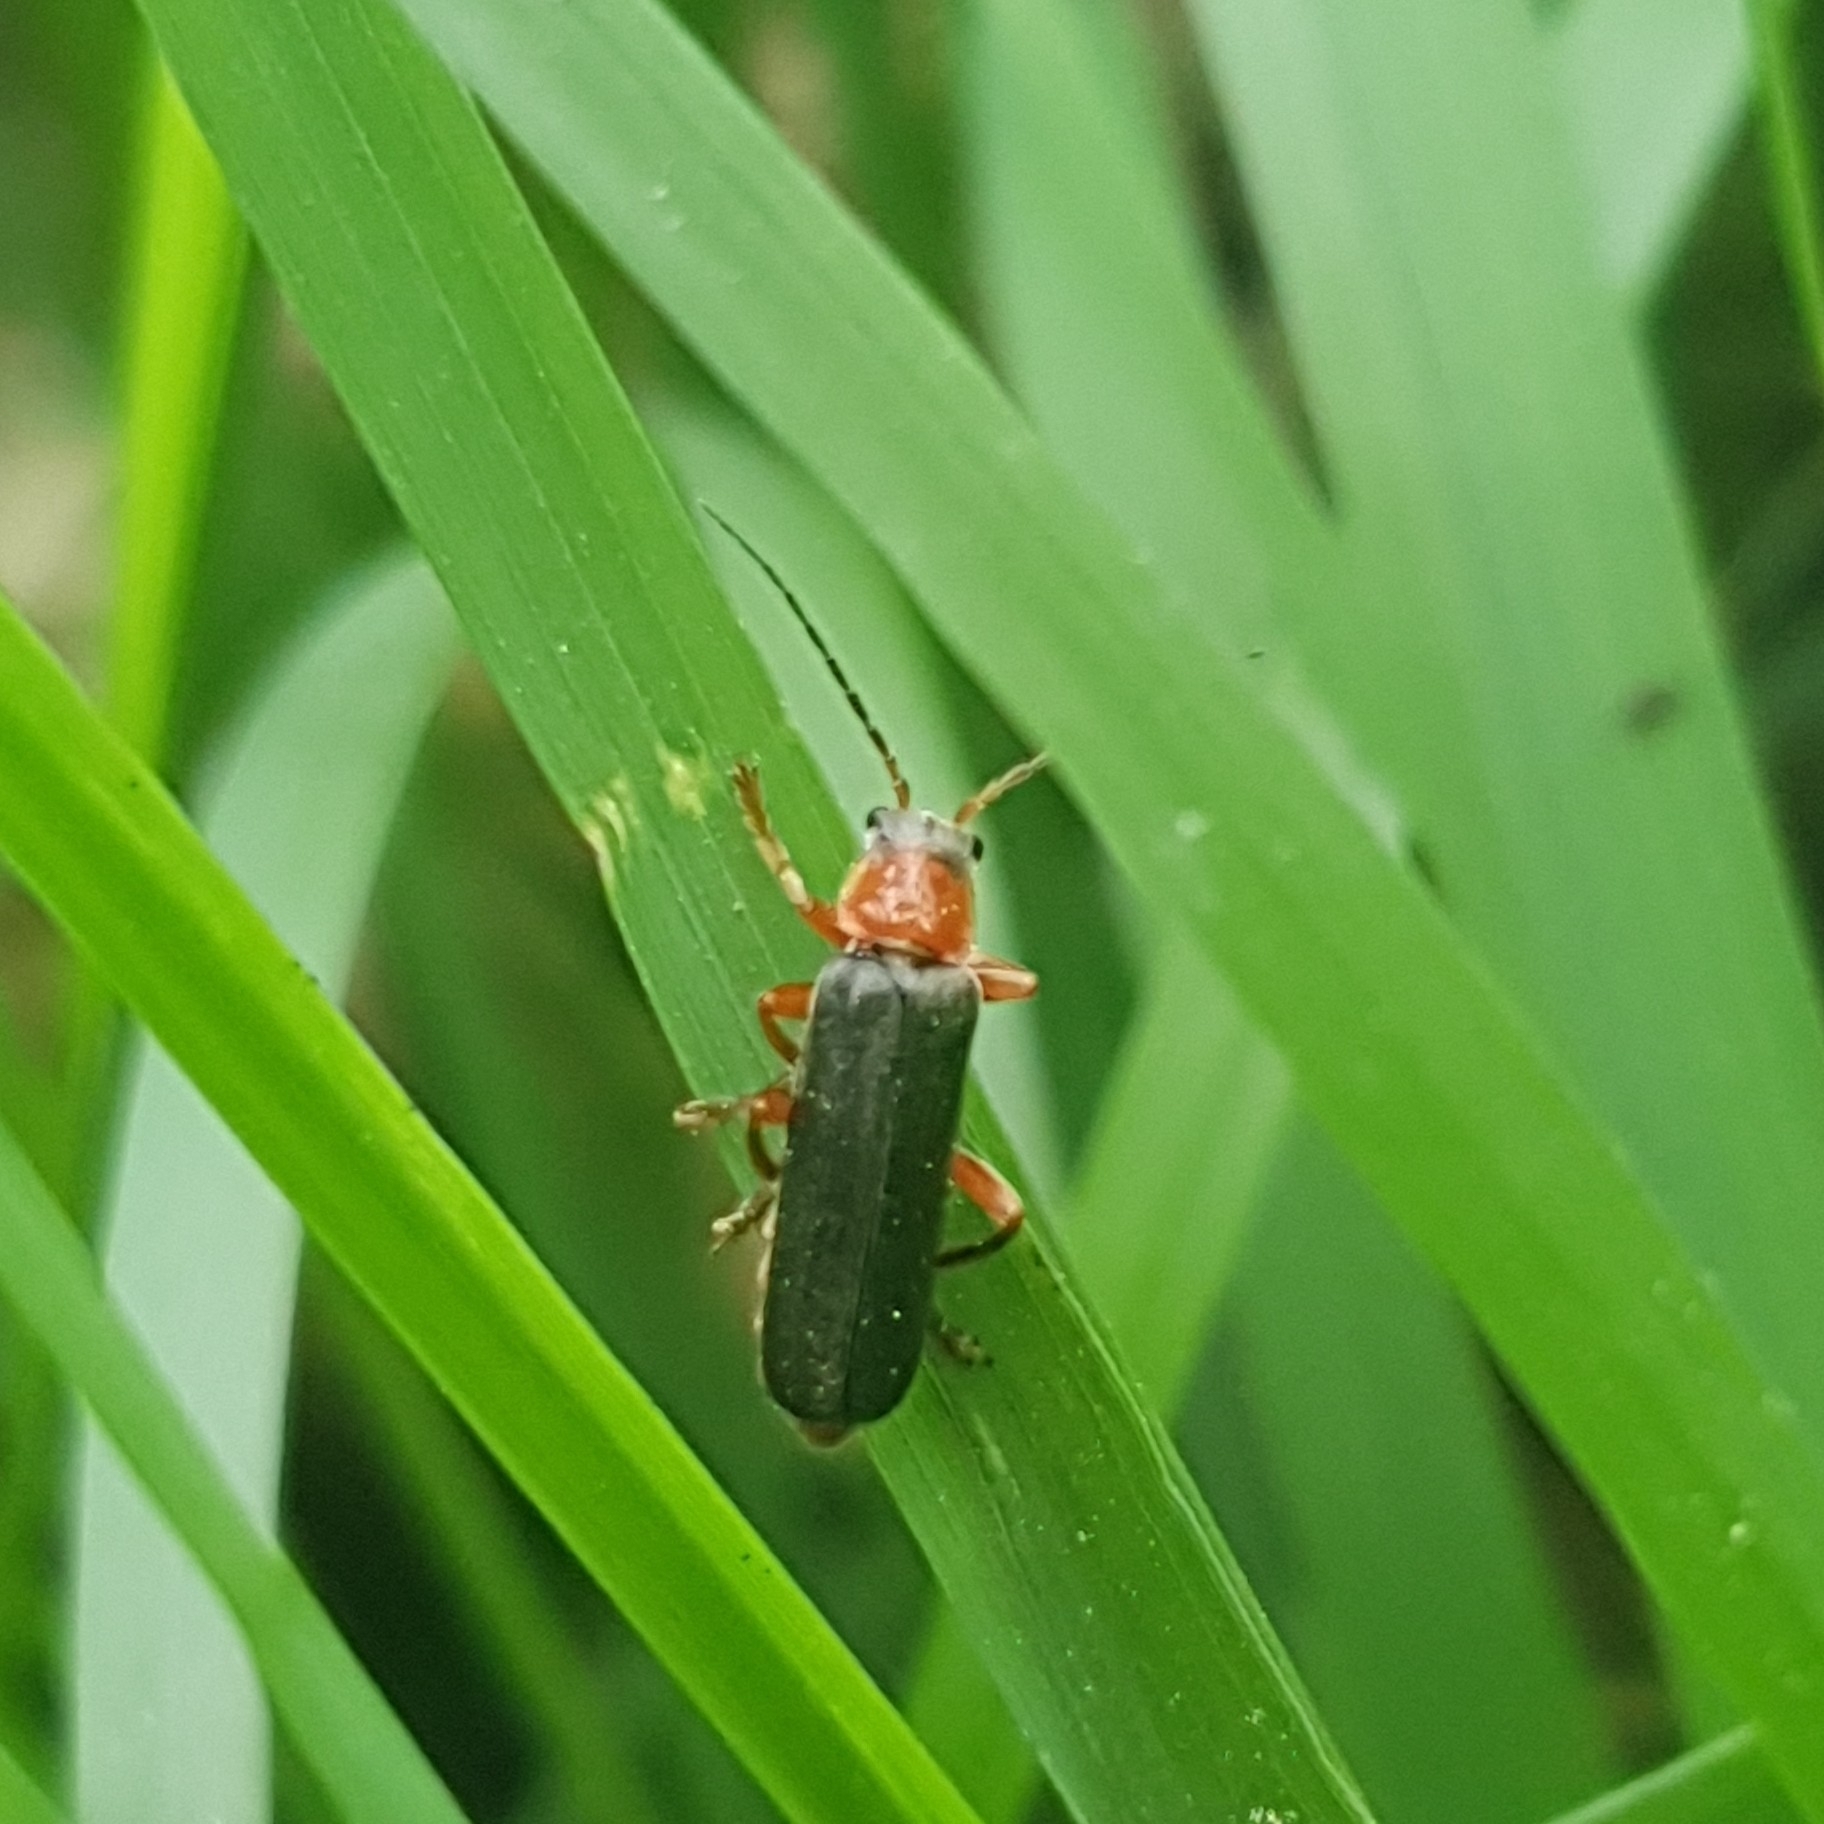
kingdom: Animalia
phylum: Arthropoda
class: Insecta
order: Coleoptera
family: Cantharidae
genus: Cantharis
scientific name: Cantharis pellucida
